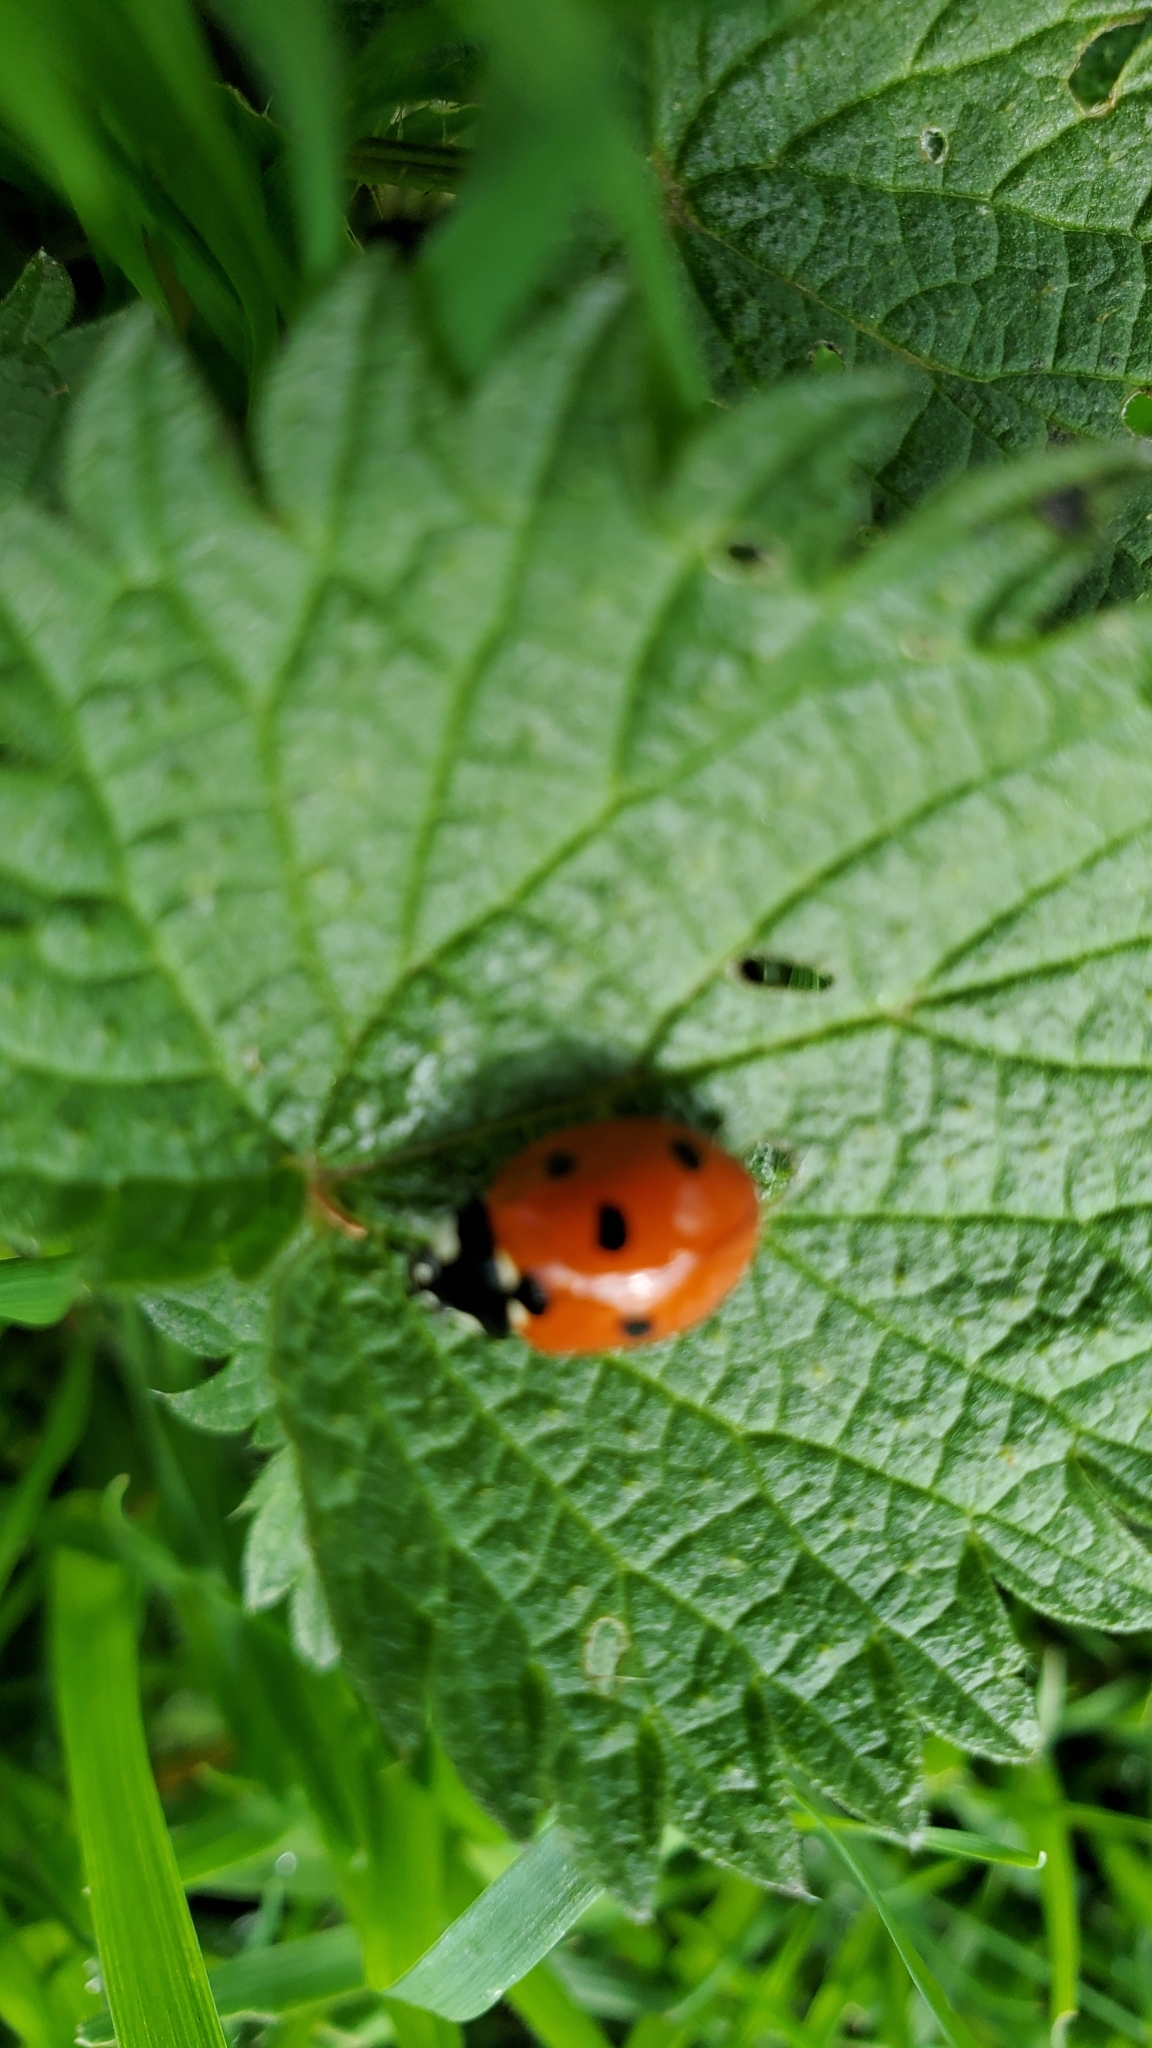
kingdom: Animalia
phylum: Arthropoda
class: Insecta
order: Coleoptera
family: Coccinellidae
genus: Coccinella
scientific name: Coccinella septempunctata
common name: Sevenspotted lady beetle
